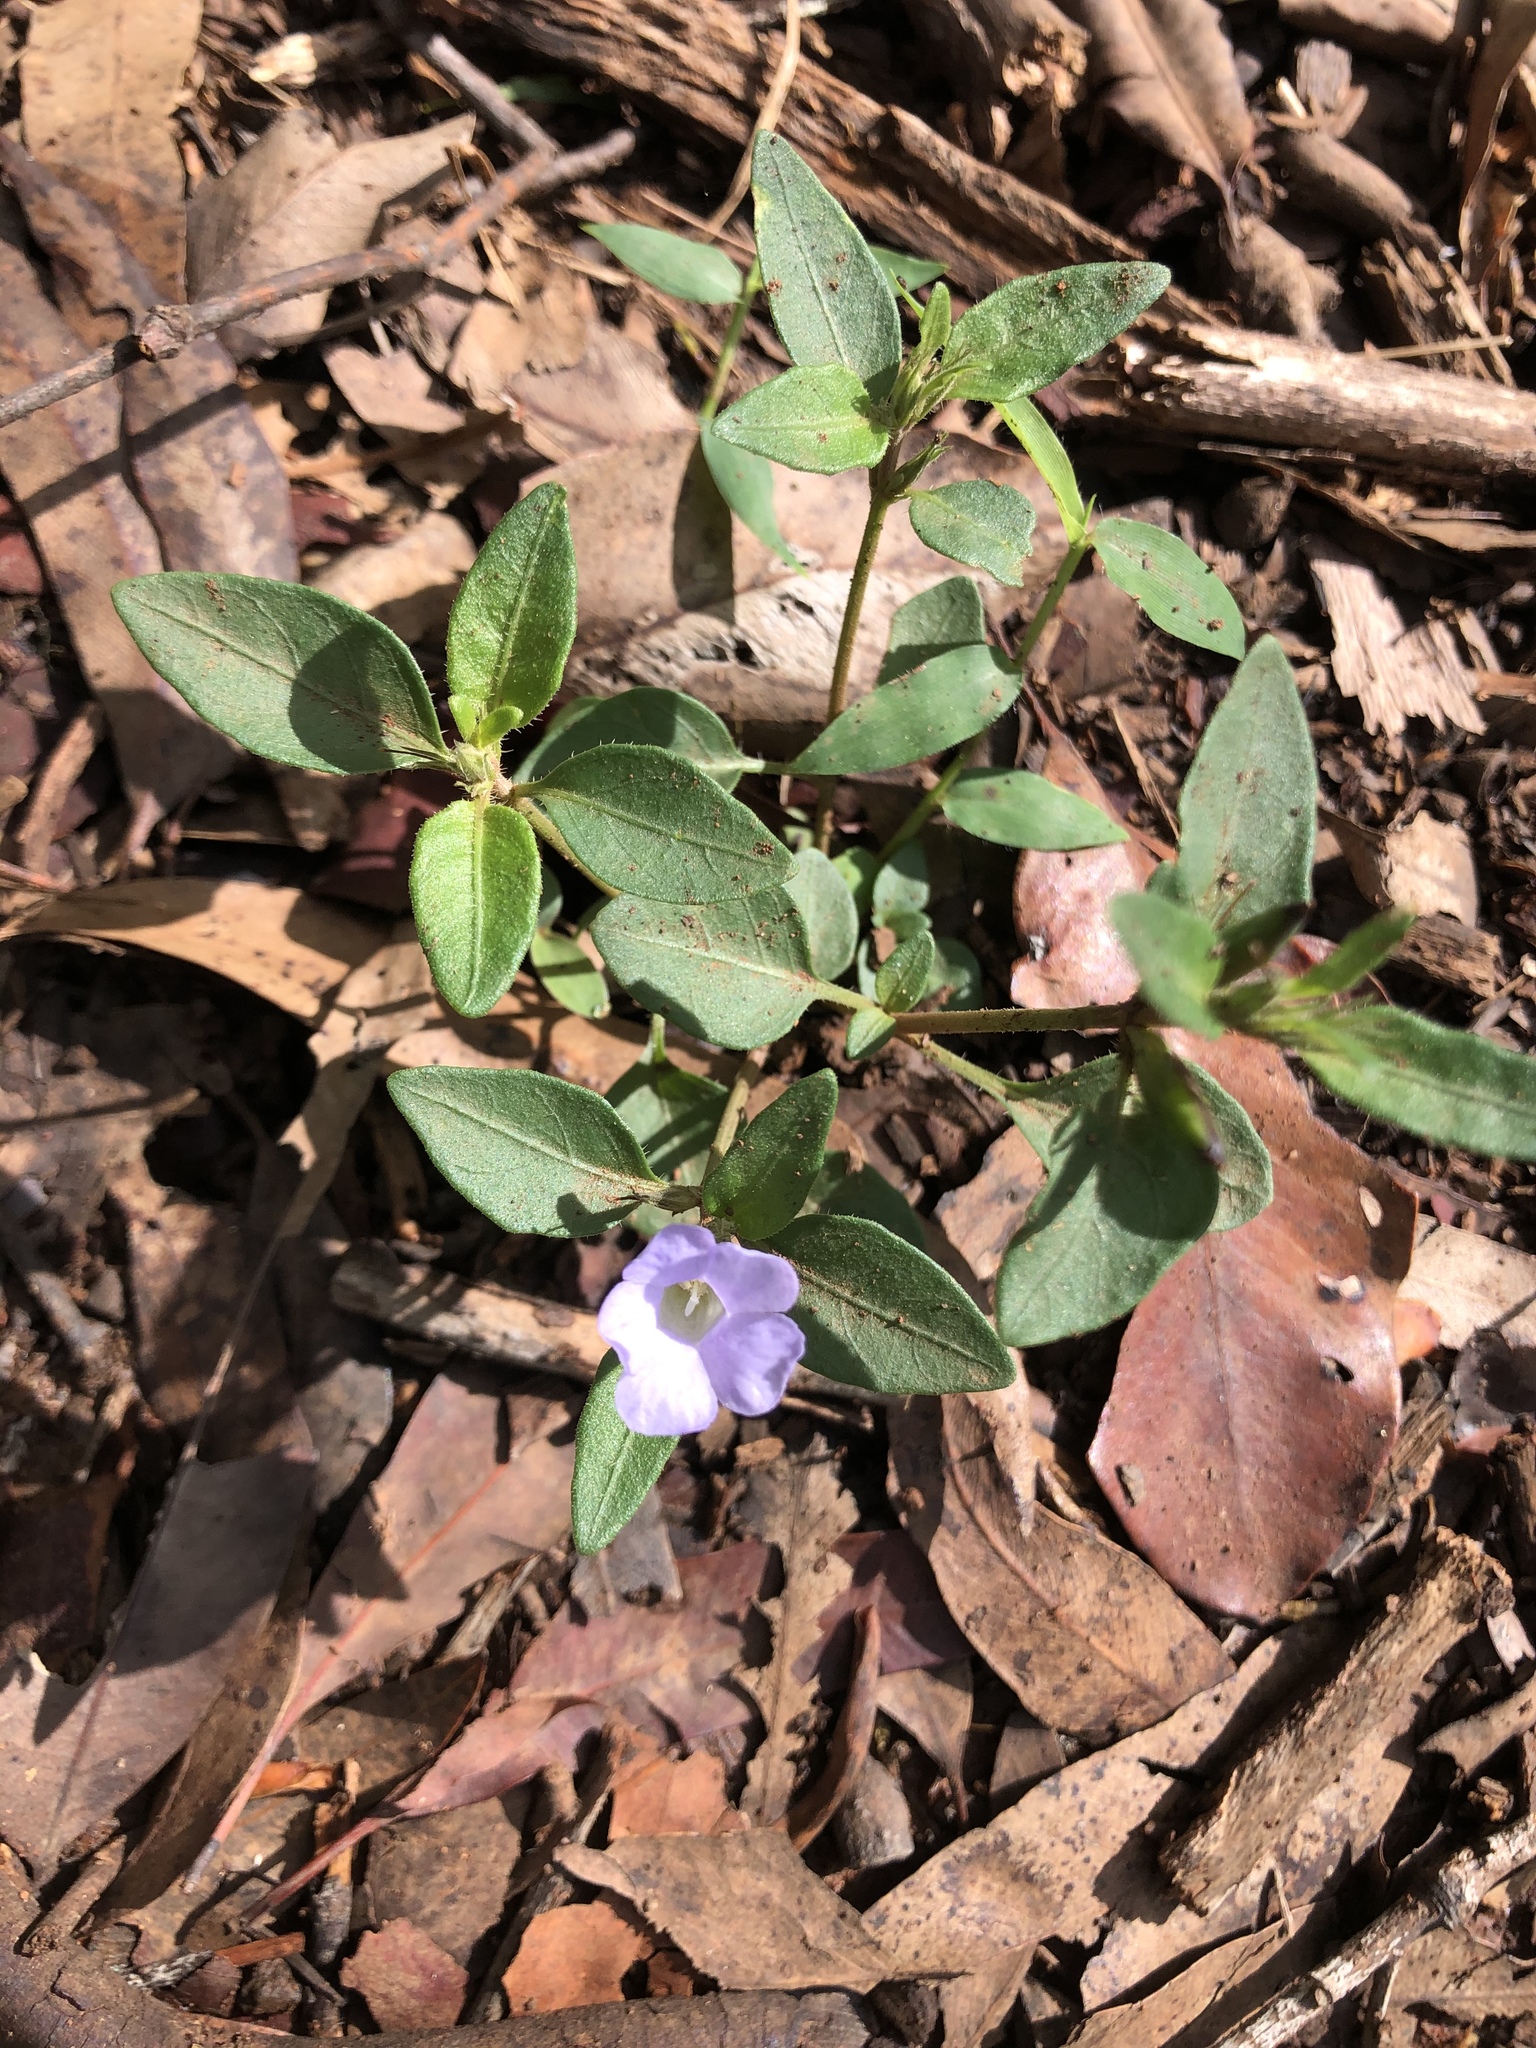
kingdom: Plantae
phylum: Tracheophyta
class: Magnoliopsida
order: Lamiales
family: Acanthaceae
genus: Brunoniella
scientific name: Brunoniella australis
